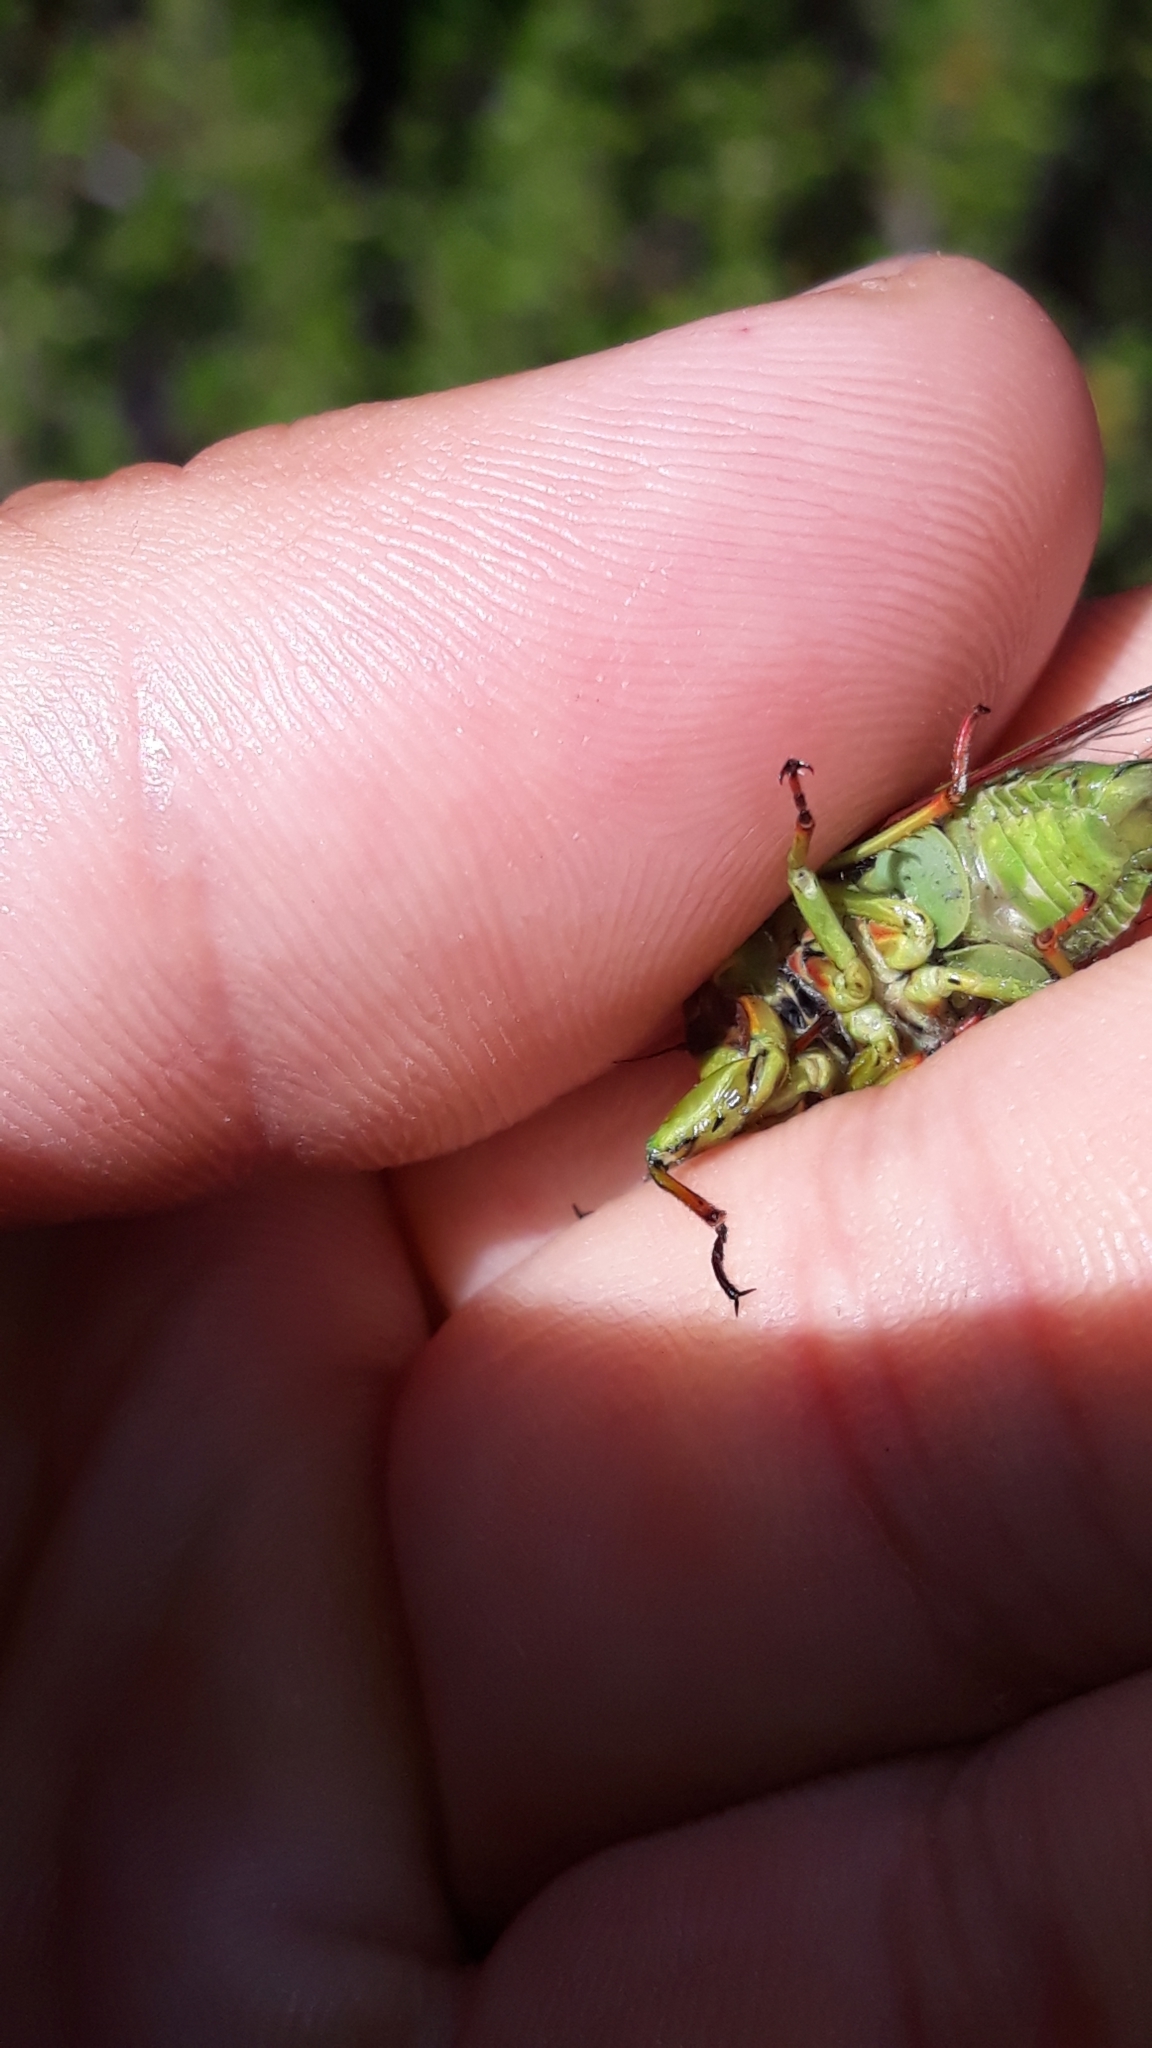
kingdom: Animalia
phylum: Arthropoda
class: Insecta
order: Hemiptera
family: Cicadidae
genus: Kikihia
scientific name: Kikihia subalpina
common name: Chathams cicada
